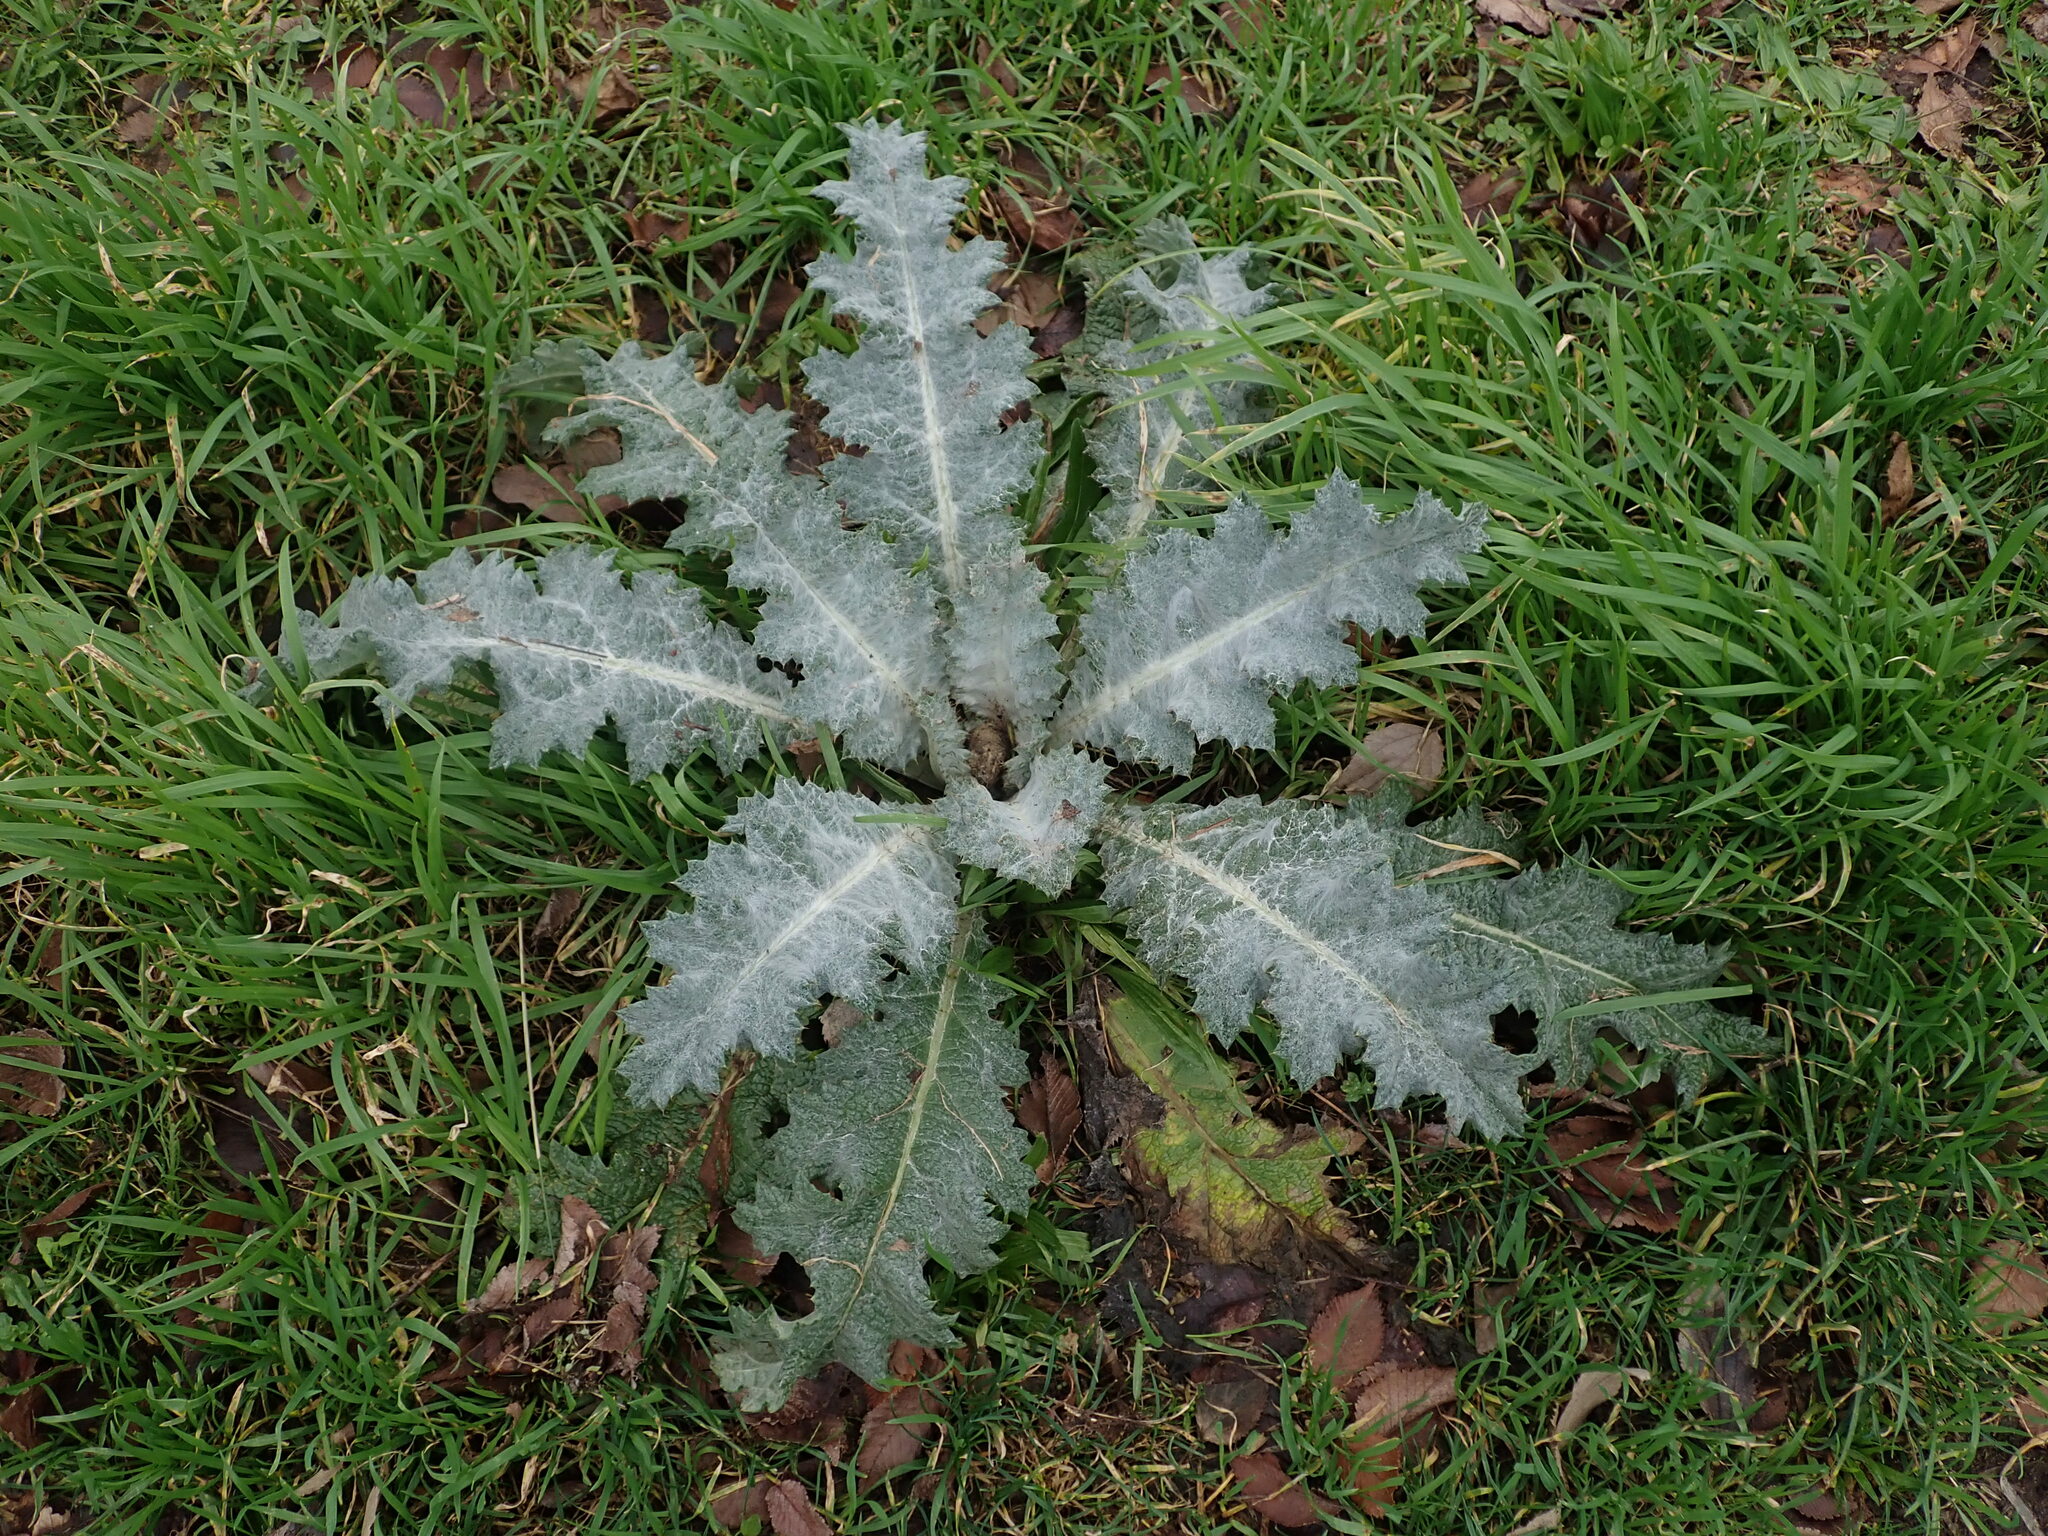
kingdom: Plantae
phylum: Tracheophyta
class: Magnoliopsida
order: Asterales
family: Asteraceae
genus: Onopordum
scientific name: Onopordum acanthium
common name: Scotch thistle
